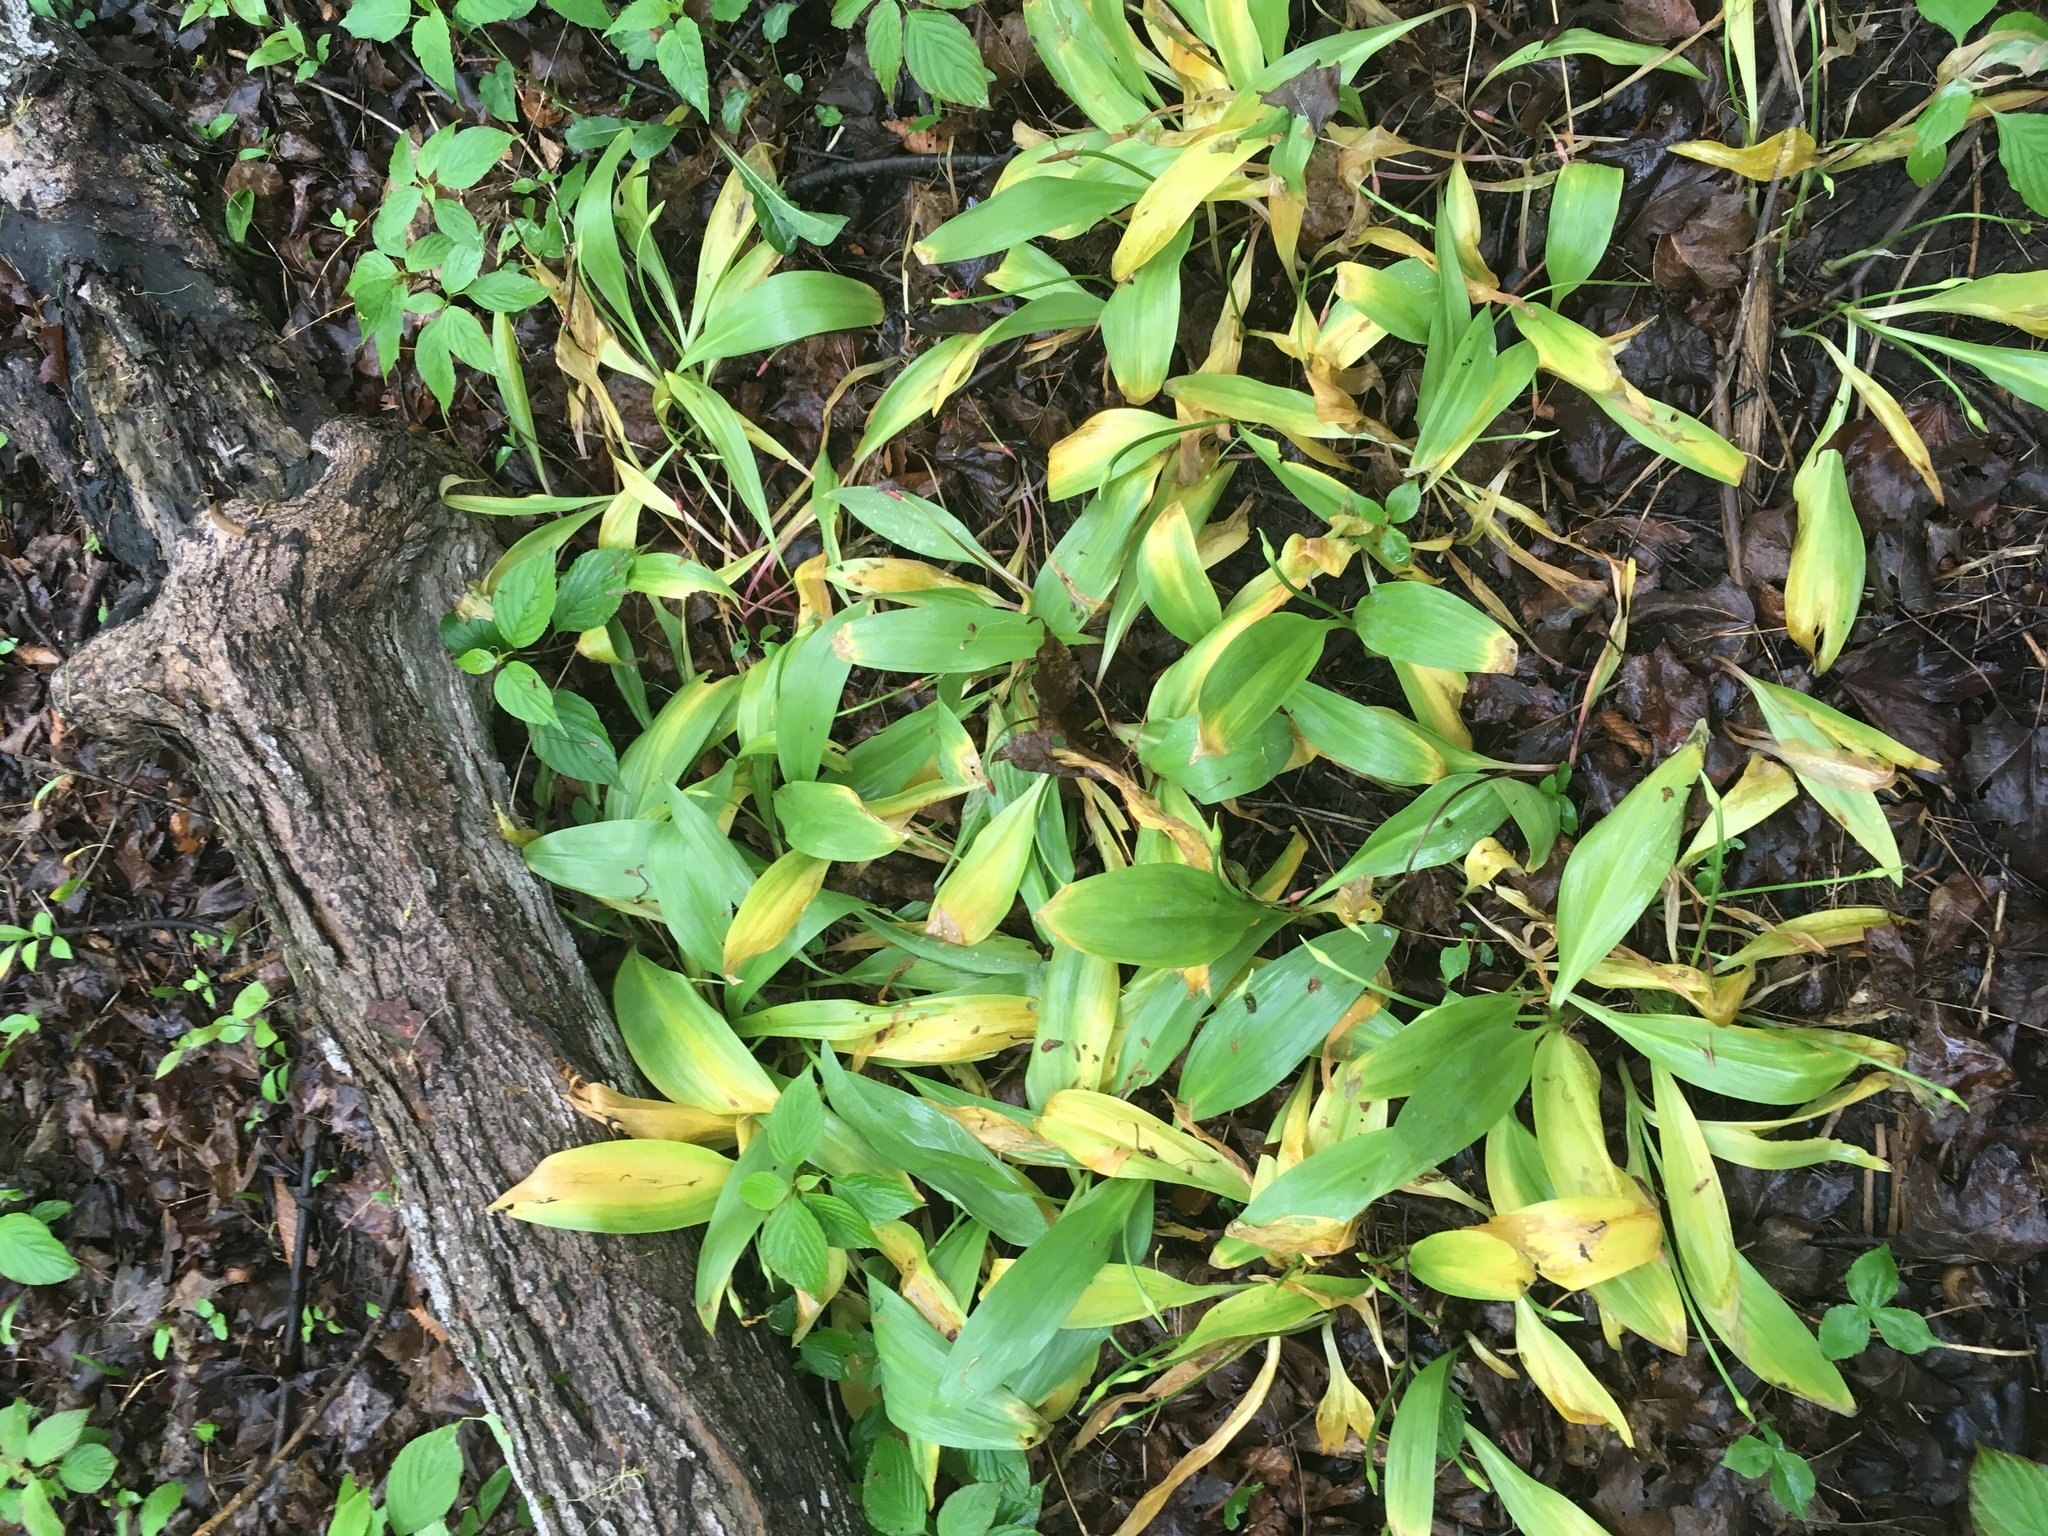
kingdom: Plantae
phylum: Tracheophyta
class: Liliopsida
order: Asparagales
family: Amaryllidaceae
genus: Allium
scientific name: Allium tricoccum
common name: Ramp
